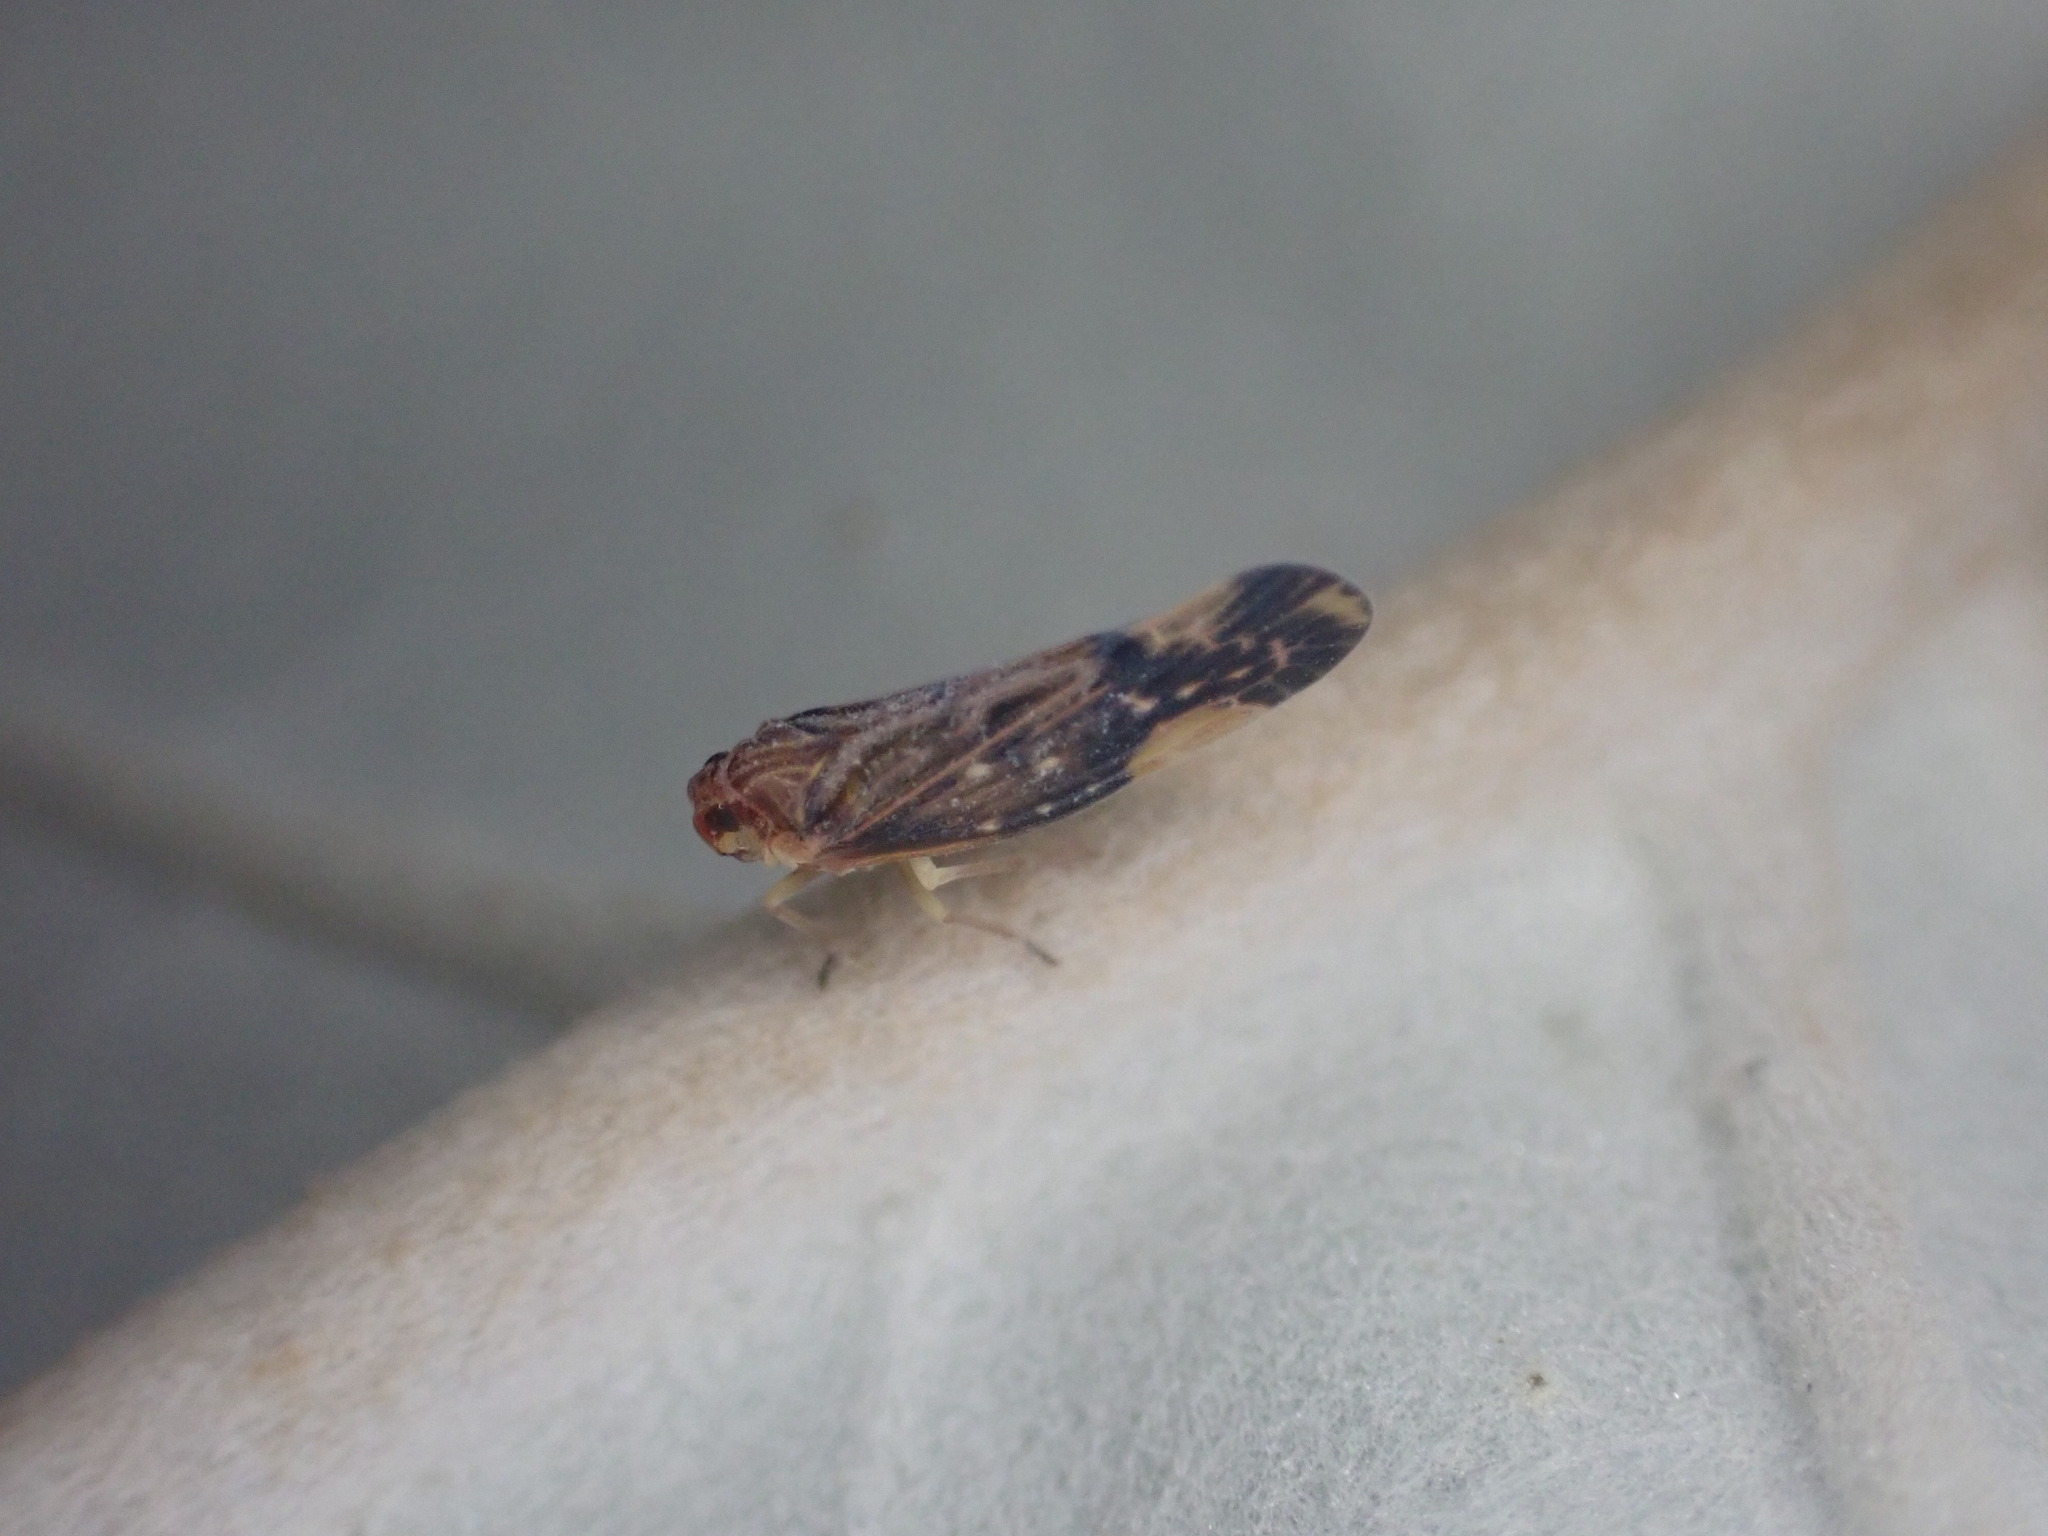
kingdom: Animalia
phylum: Arthropoda
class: Insecta
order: Hemiptera
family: Derbidae
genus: Eocenchrea
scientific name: Eocenchrea maorica
